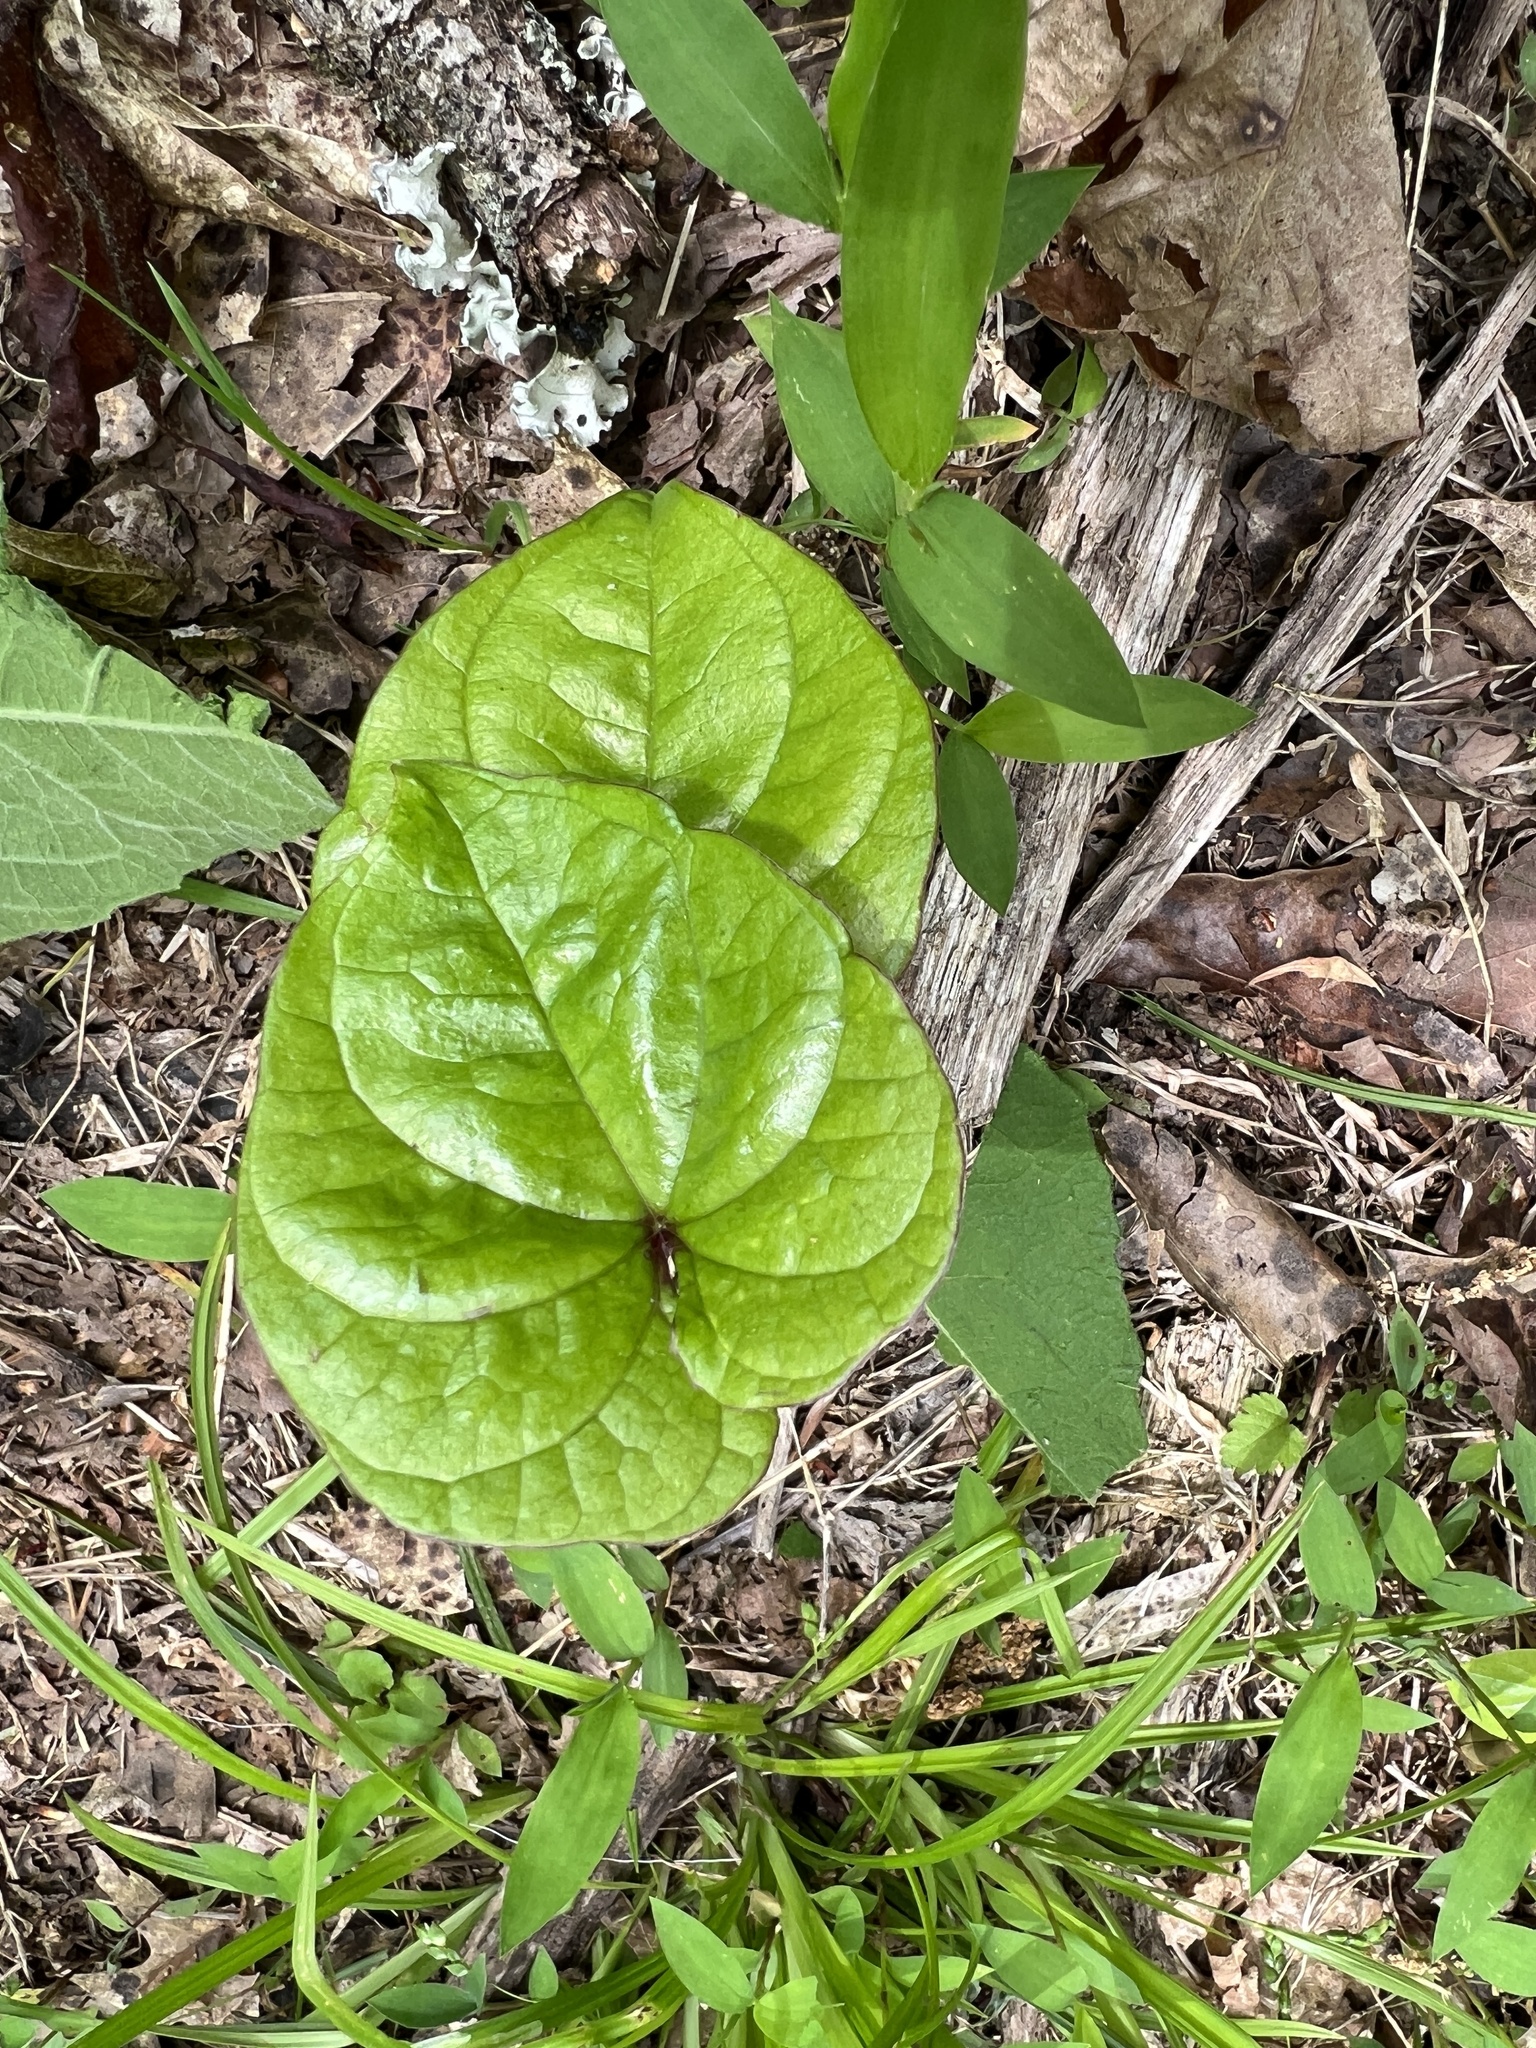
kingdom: Plantae
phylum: Tracheophyta
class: Liliopsida
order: Dioscoreales
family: Dioscoreaceae
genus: Dioscorea
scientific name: Dioscorea polystachya
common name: Chinese yam
